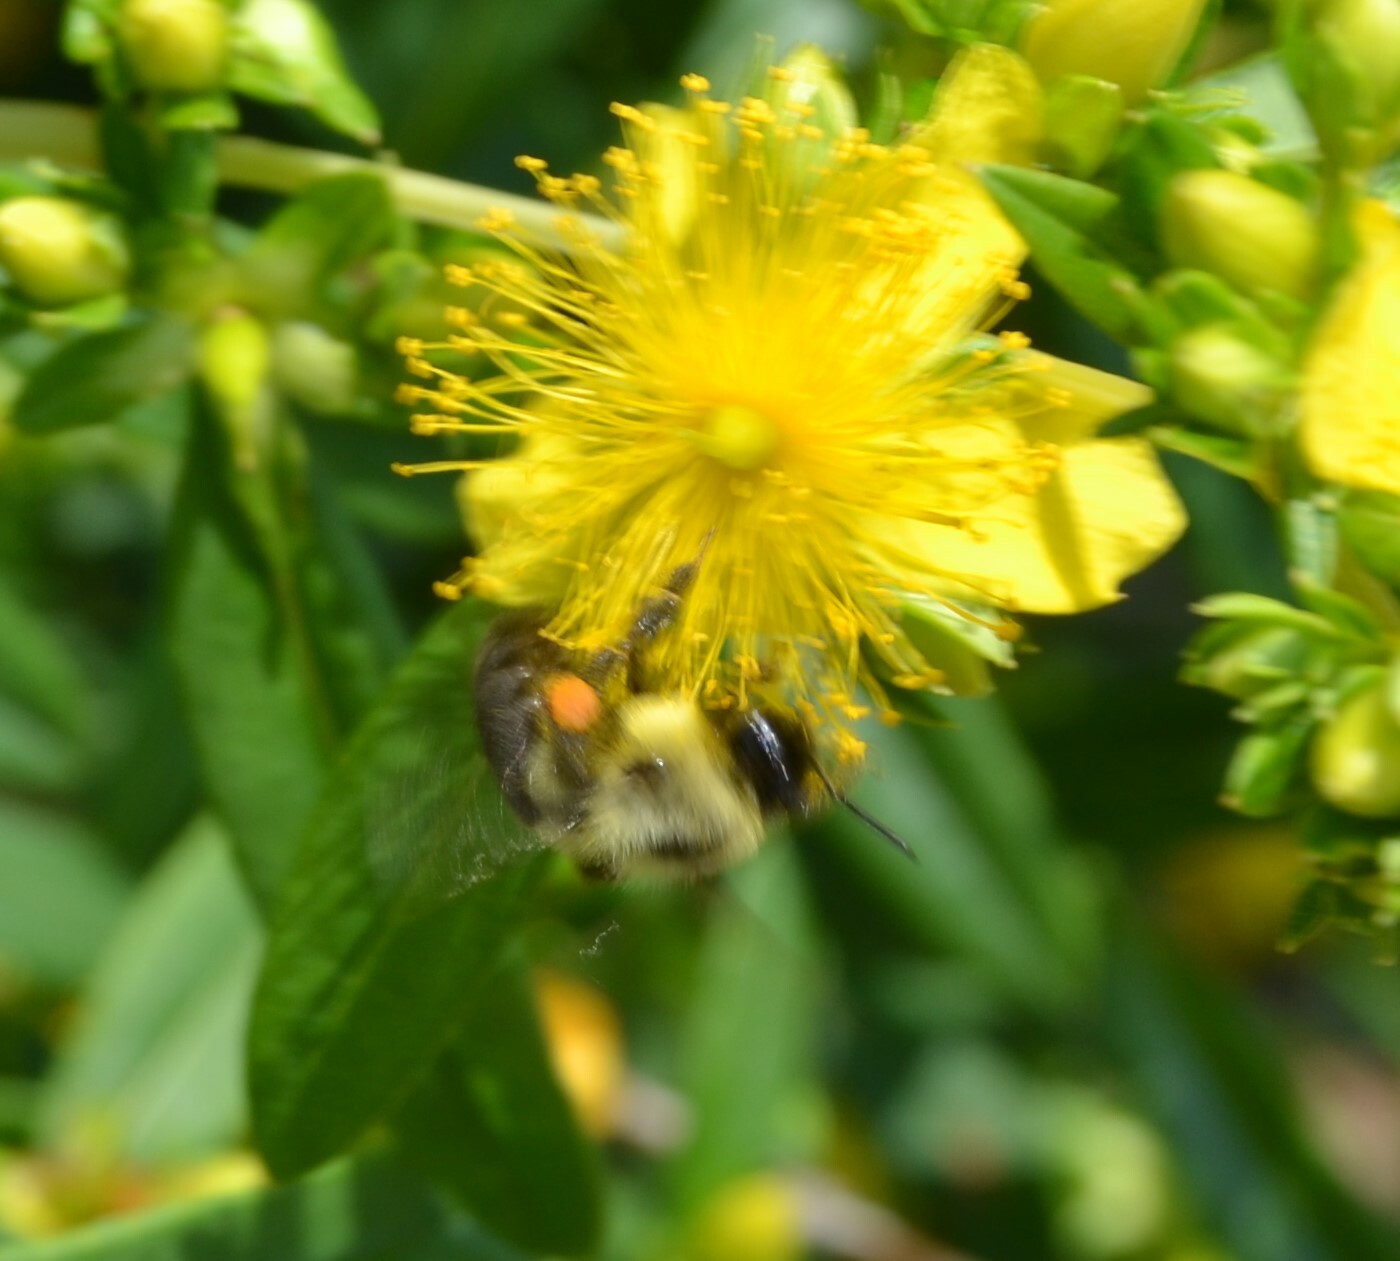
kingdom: Animalia
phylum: Arthropoda
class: Insecta
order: Hymenoptera
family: Apidae
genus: Bombus
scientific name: Bombus impatiens
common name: Common eastern bumble bee
